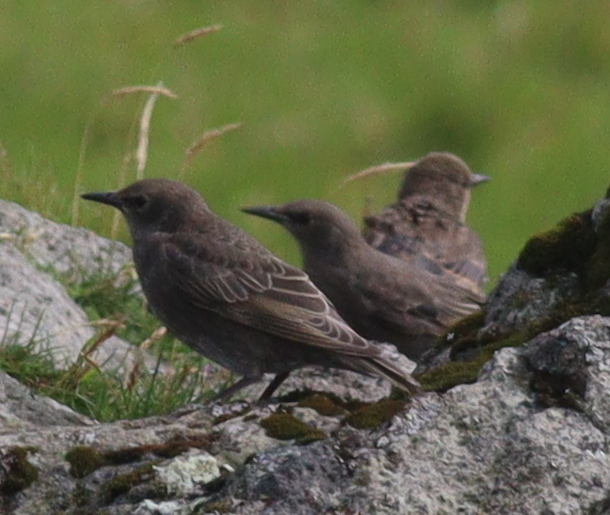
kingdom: Animalia
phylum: Chordata
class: Aves
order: Passeriformes
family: Sturnidae
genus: Sturnus
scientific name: Sturnus vulgaris
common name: Common starling
